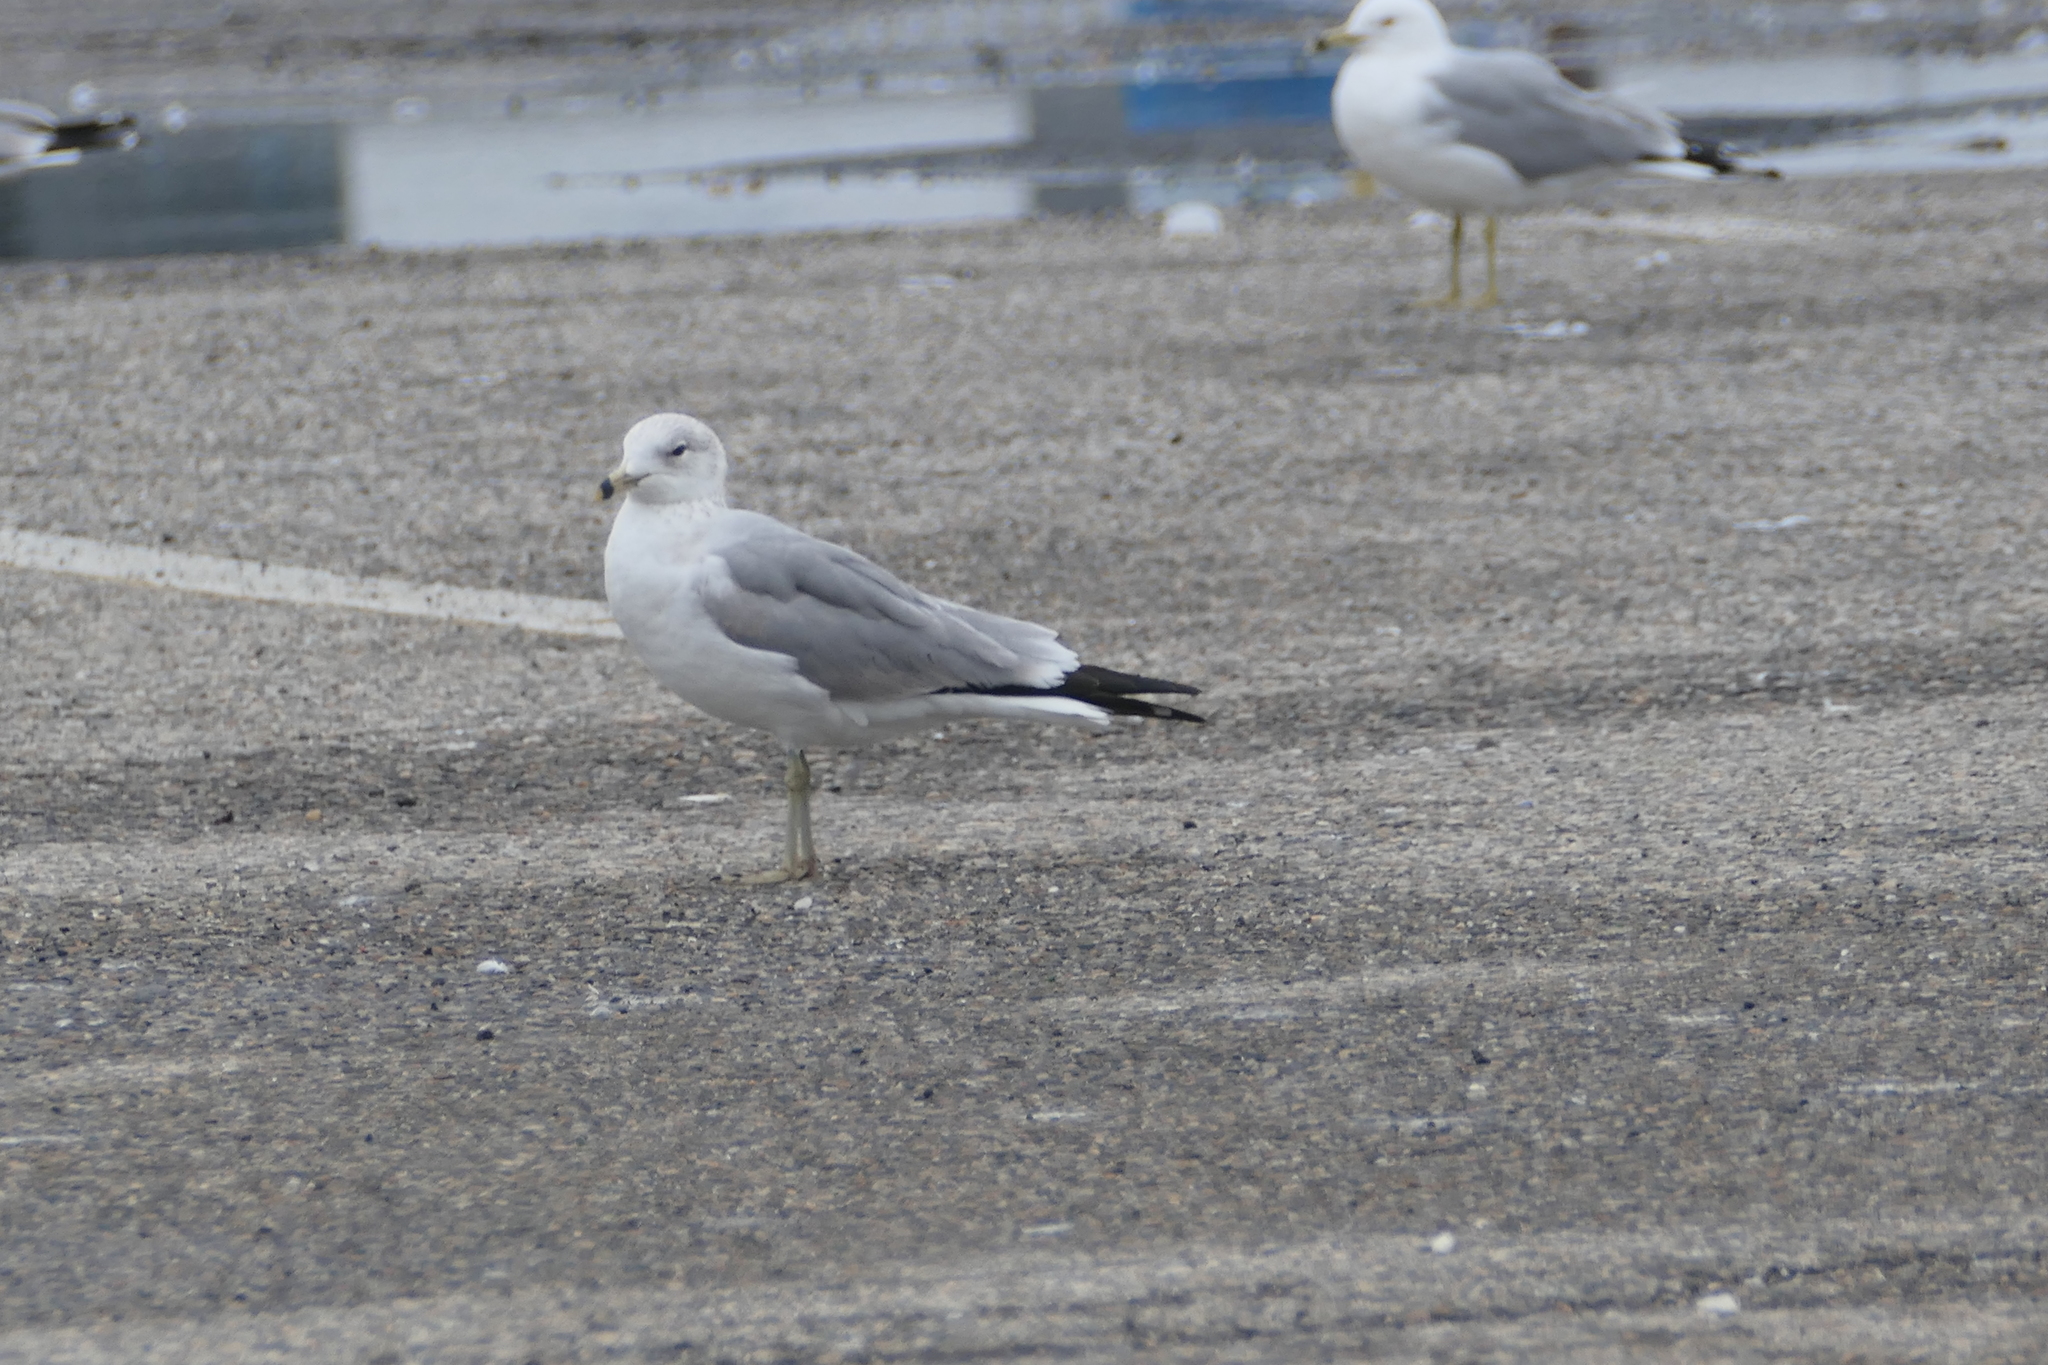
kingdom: Animalia
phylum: Chordata
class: Aves
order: Charadriiformes
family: Laridae
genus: Larus
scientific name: Larus delawarensis
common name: Ring-billed gull
